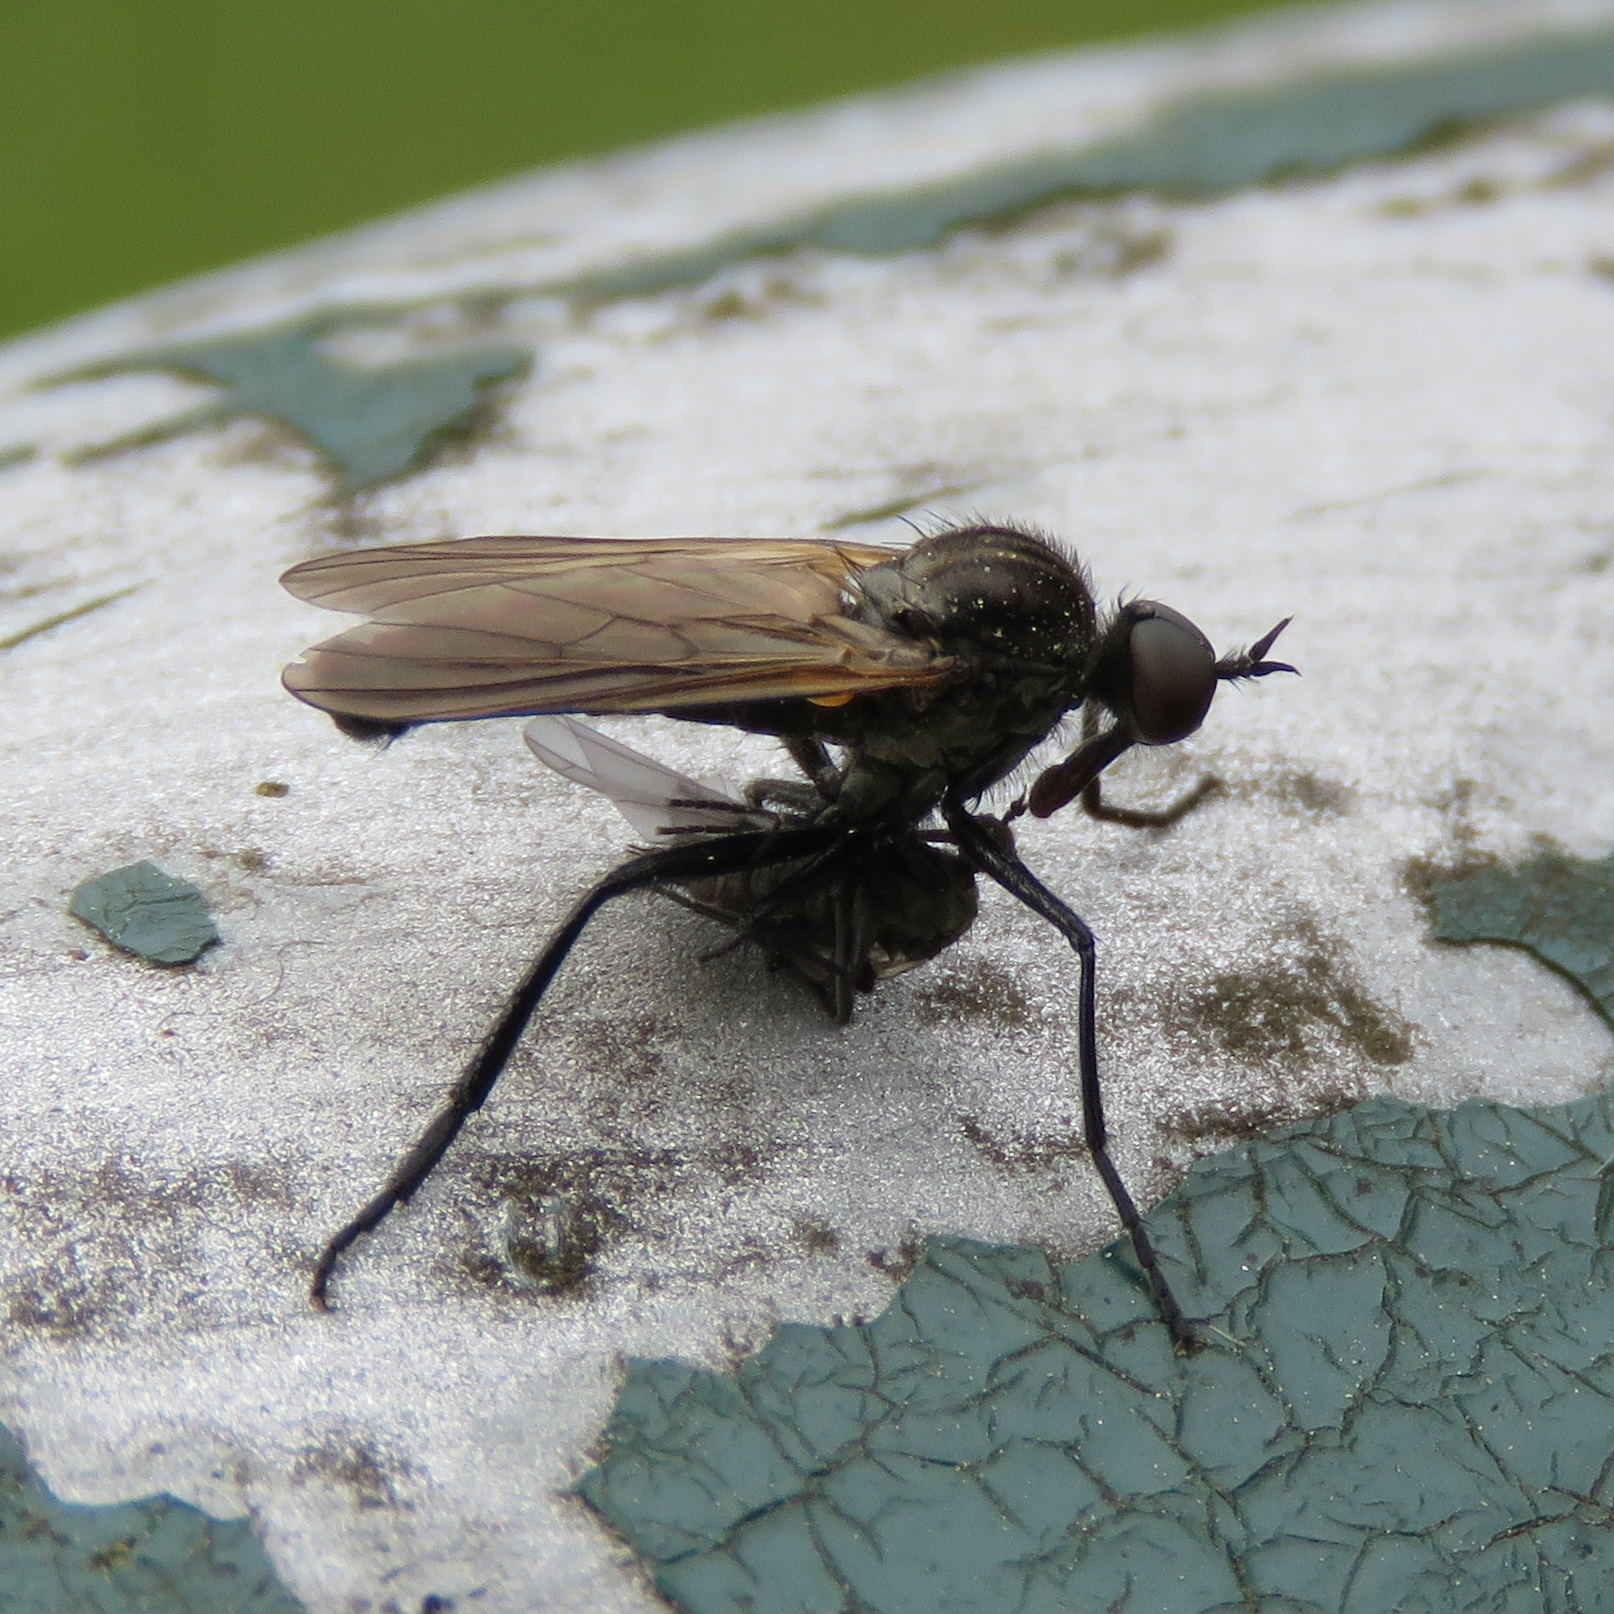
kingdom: Animalia
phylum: Arthropoda
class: Insecta
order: Diptera
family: Empididae
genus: Rhamphomyia
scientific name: Rhamphomyia
